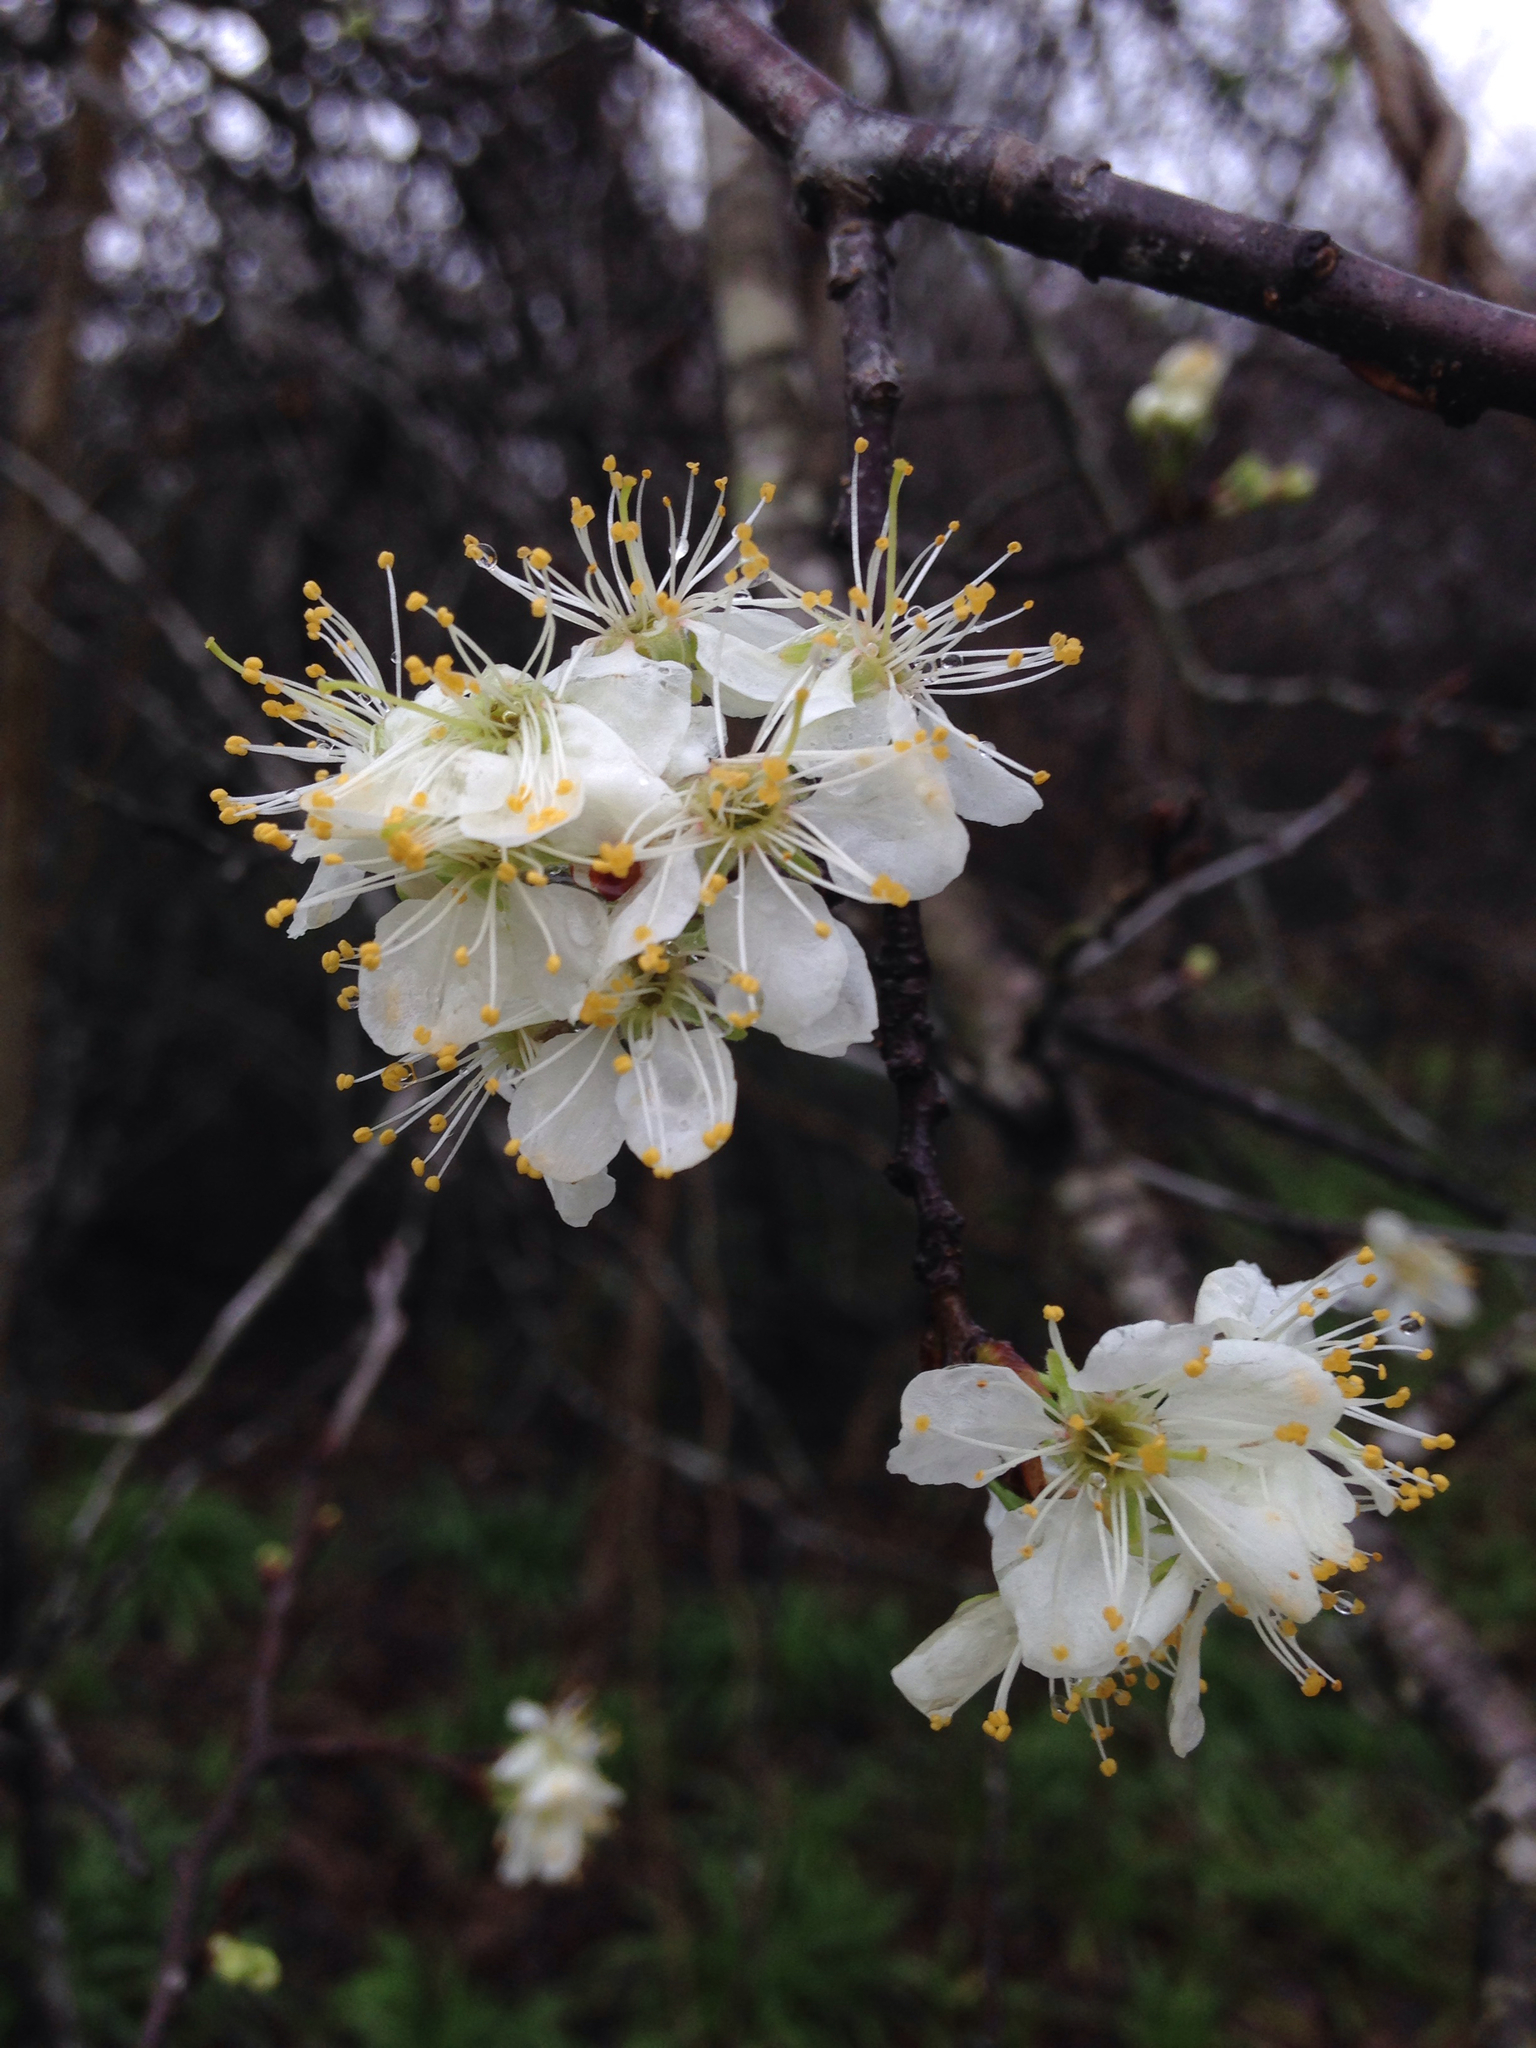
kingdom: Plantae
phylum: Tracheophyta
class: Magnoliopsida
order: Rosales
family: Rosaceae
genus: Prunus
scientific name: Prunus mexicana
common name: Mexican plum
